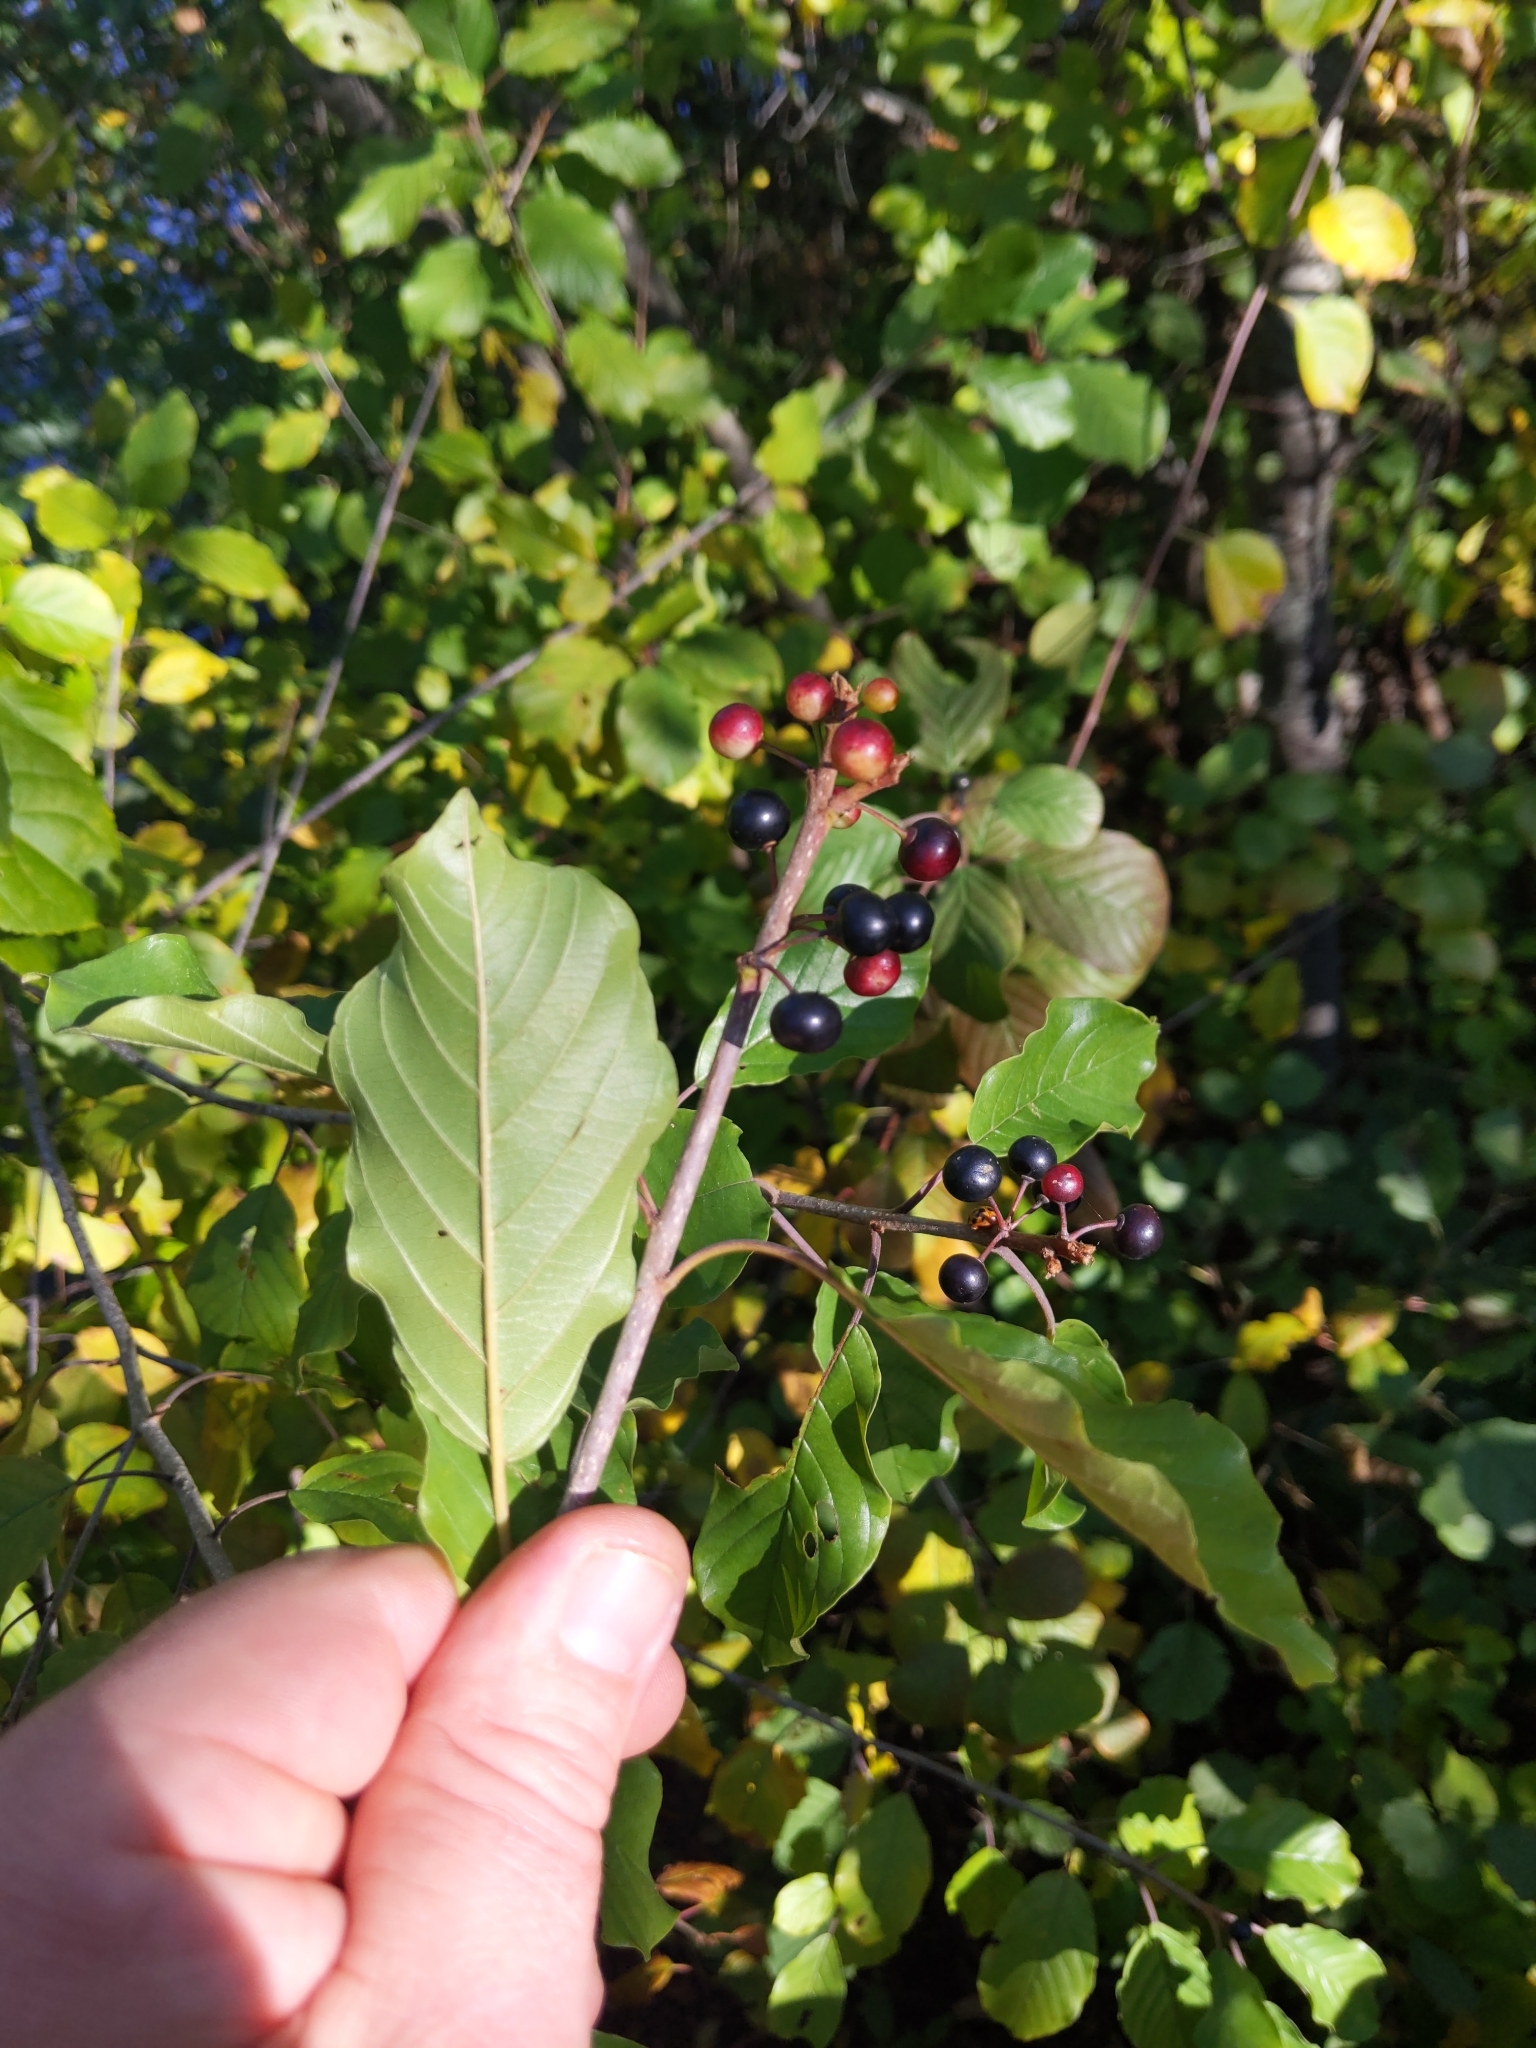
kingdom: Plantae
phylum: Tracheophyta
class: Magnoliopsida
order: Rosales
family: Rhamnaceae
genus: Frangula
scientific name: Frangula alnus
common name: Alder buckthorn
